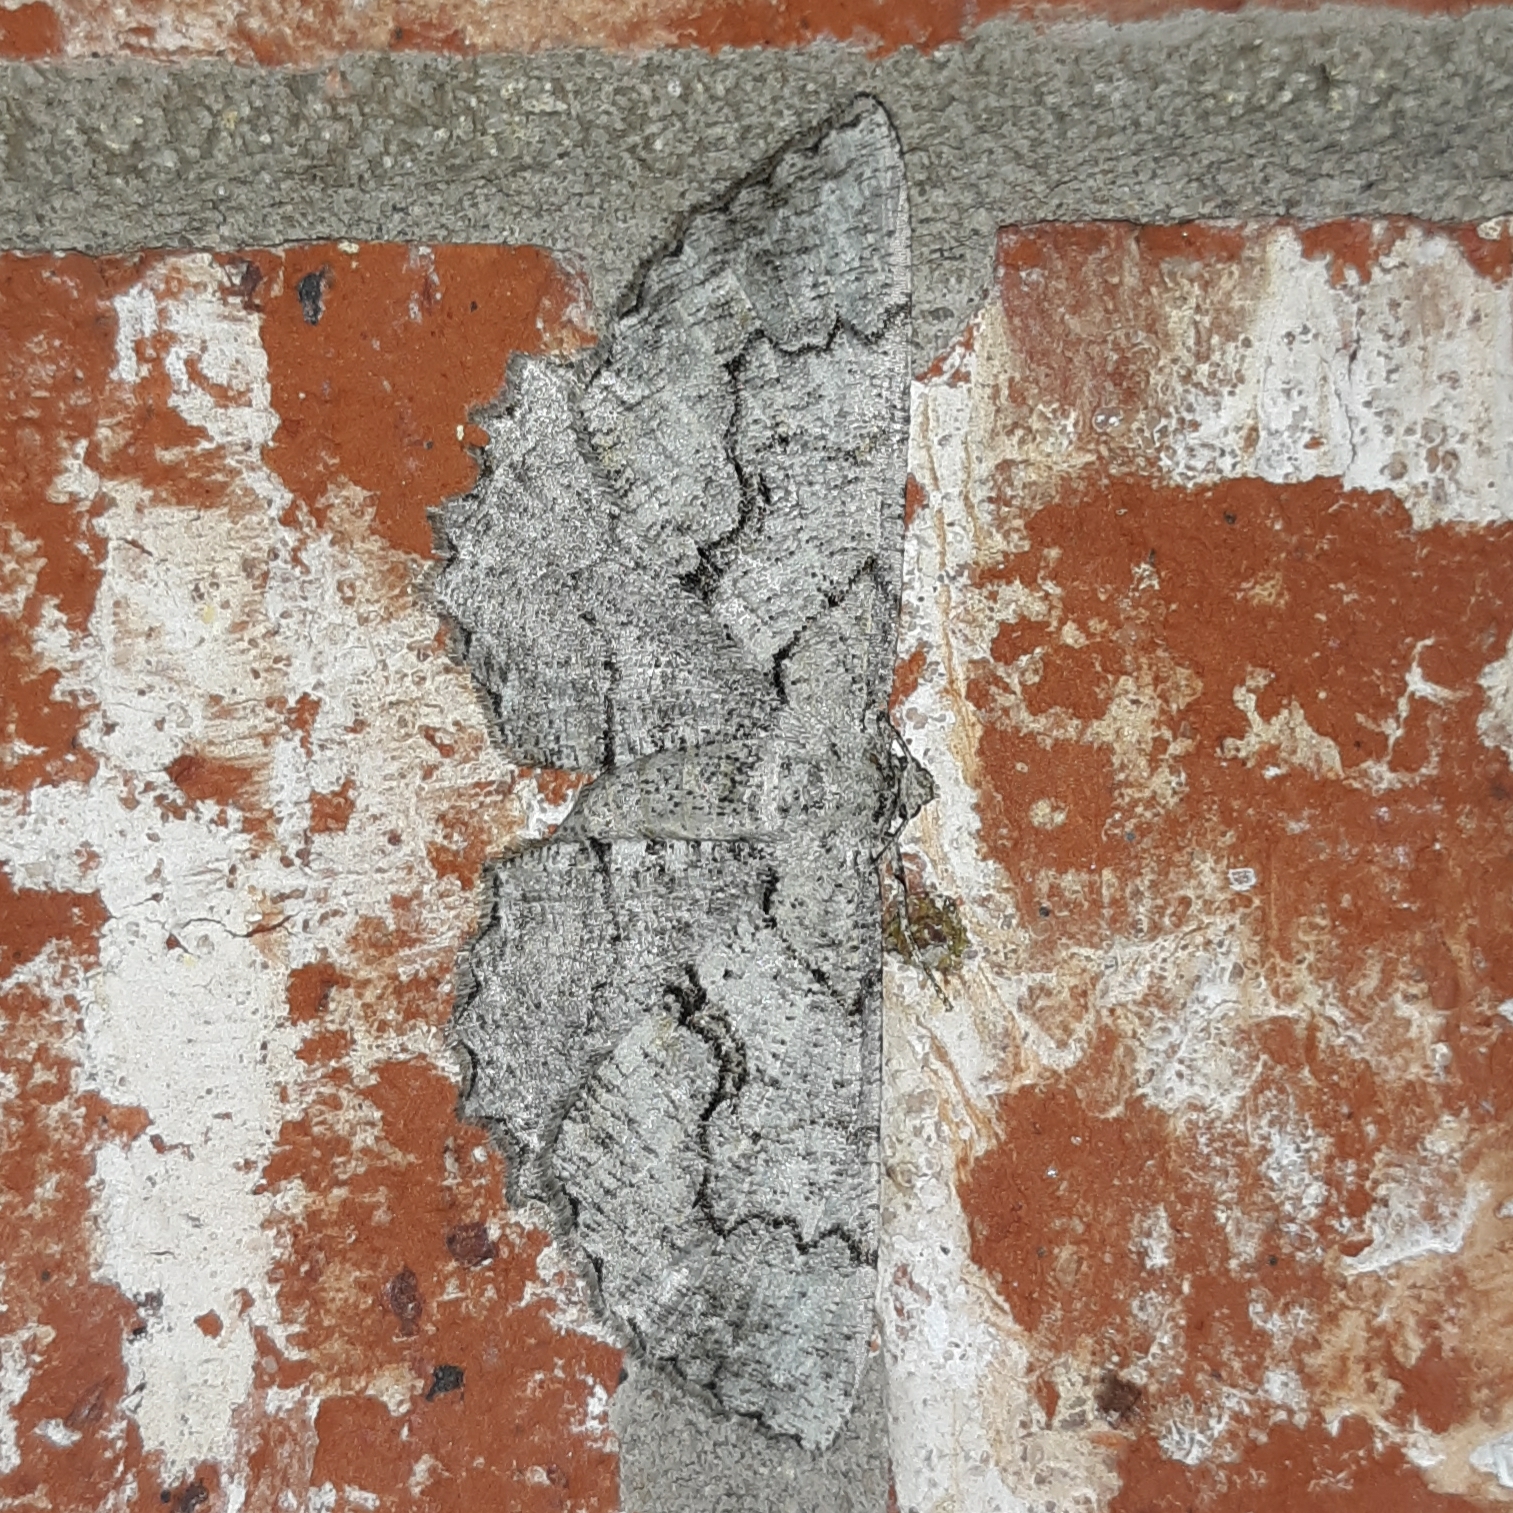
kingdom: Animalia
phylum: Arthropoda
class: Insecta
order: Lepidoptera
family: Geometridae
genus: Cymatophora
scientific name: Cymatophora approximaria
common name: Giant gray moth
